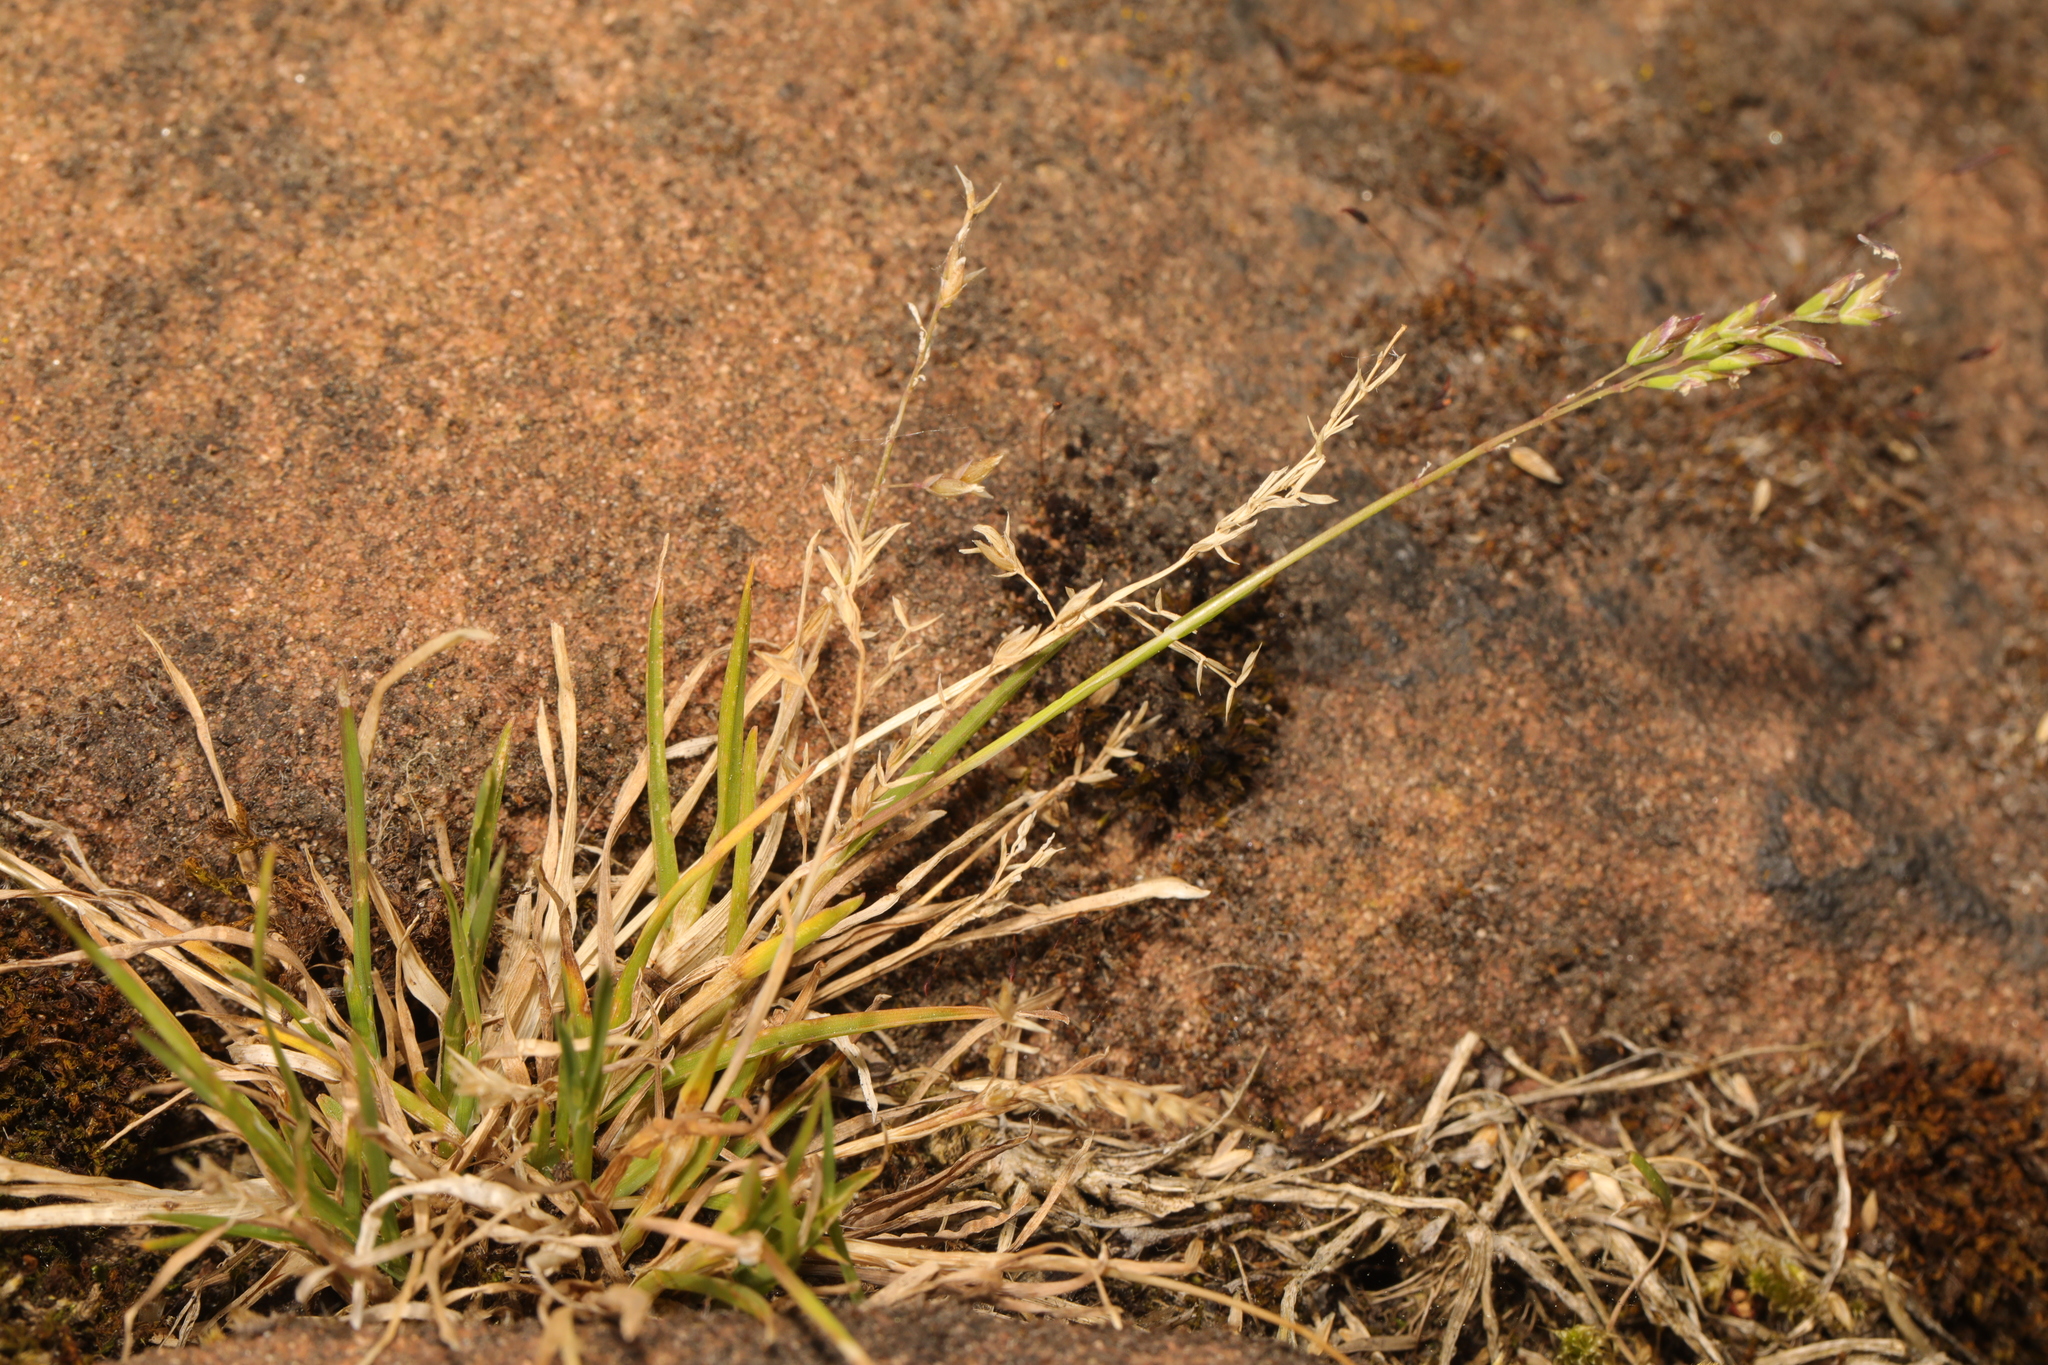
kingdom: Plantae
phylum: Tracheophyta
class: Liliopsida
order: Poales
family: Poaceae
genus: Poa
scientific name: Poa annua
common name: Annual bluegrass
